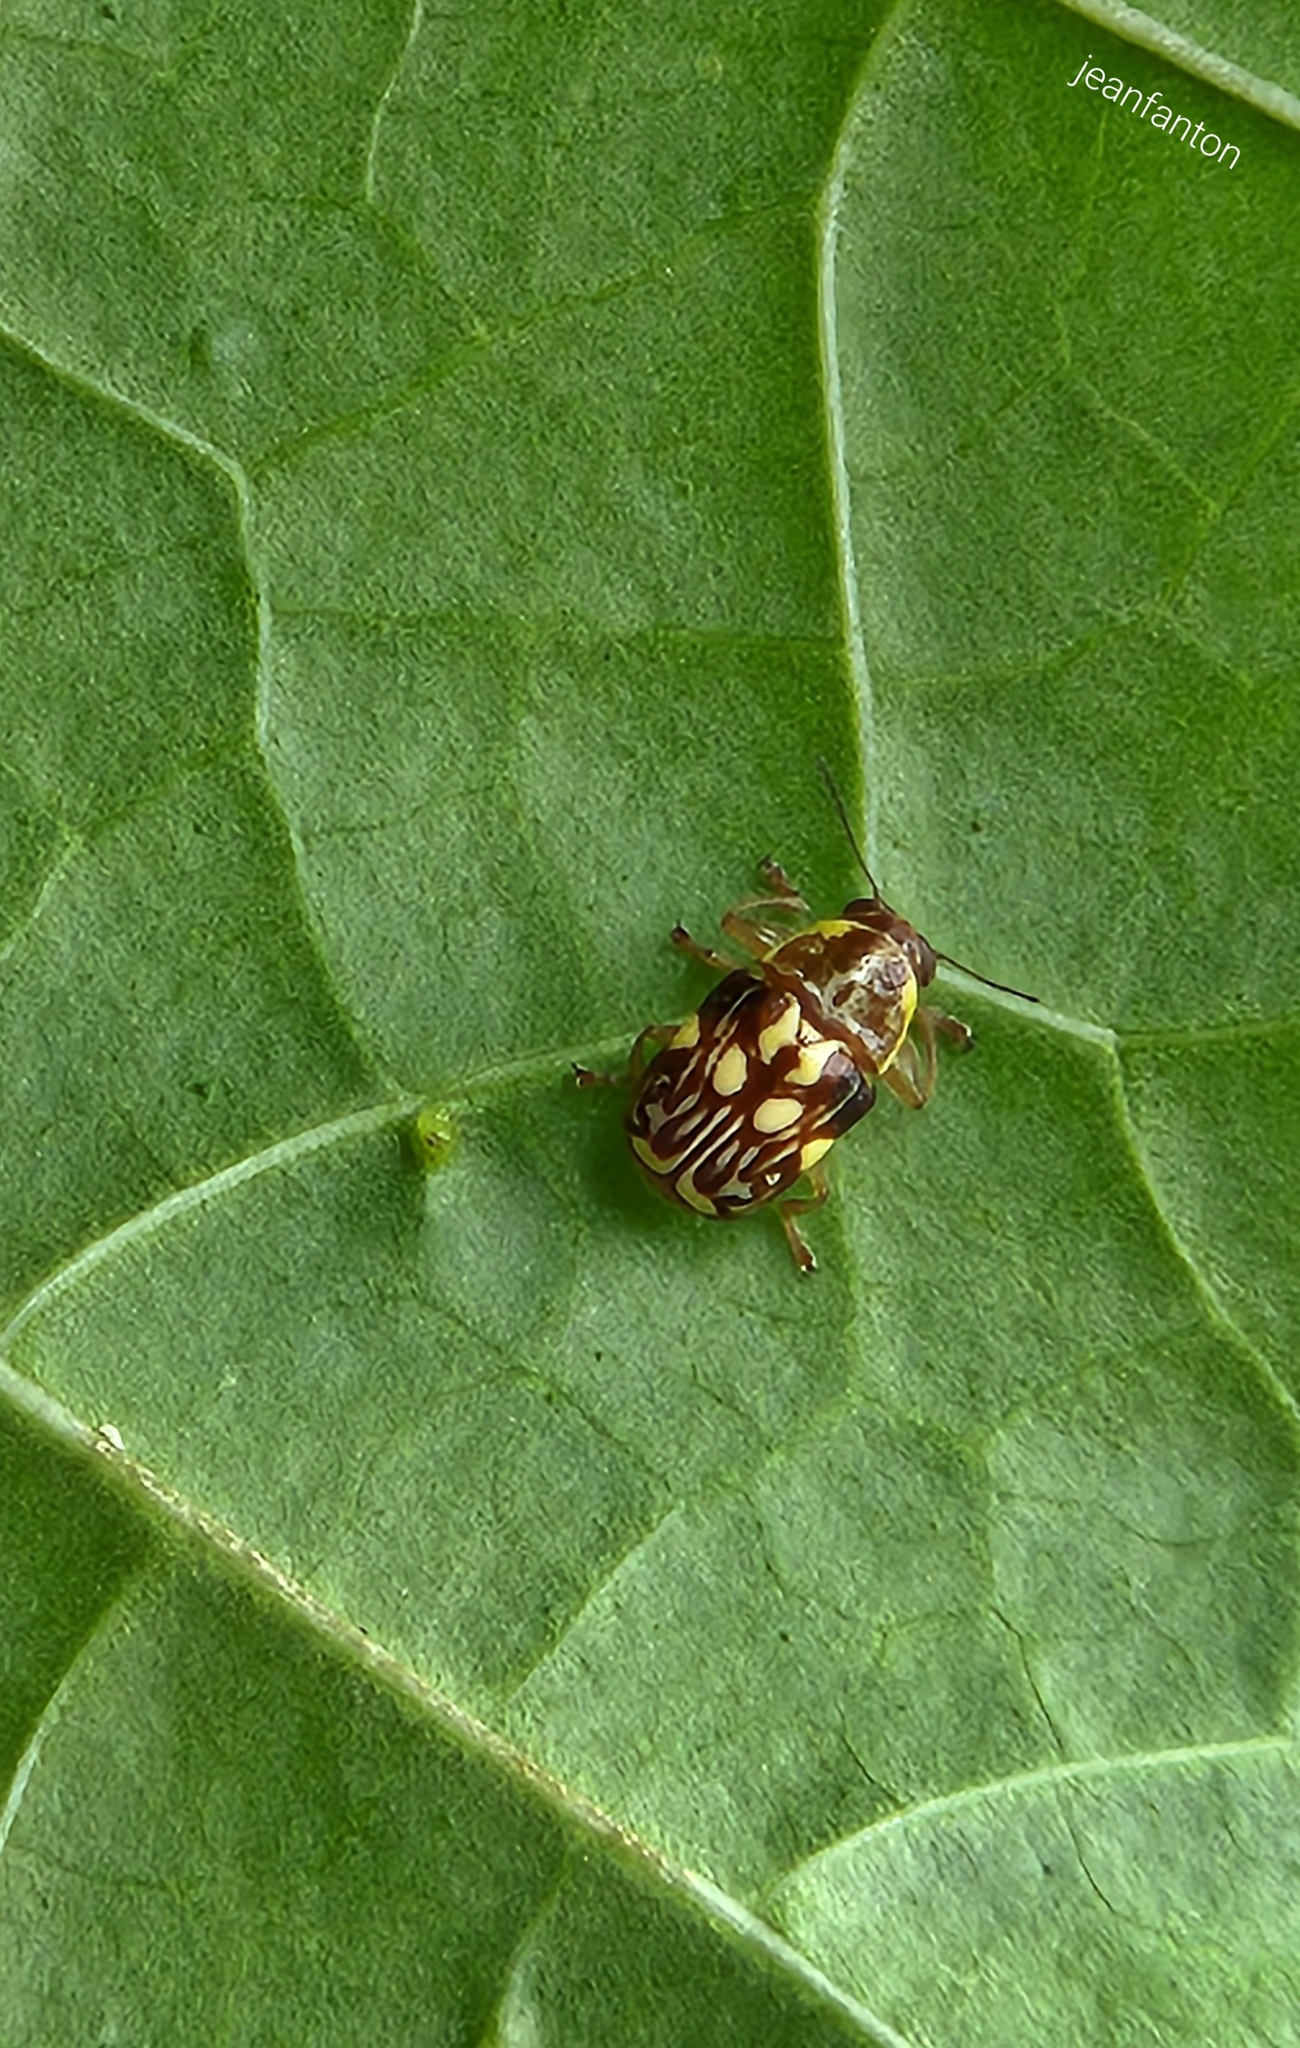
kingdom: Animalia
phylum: Arthropoda
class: Insecta
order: Coleoptera
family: Chrysomelidae
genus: Pachybrachis
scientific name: Pachybrachis
